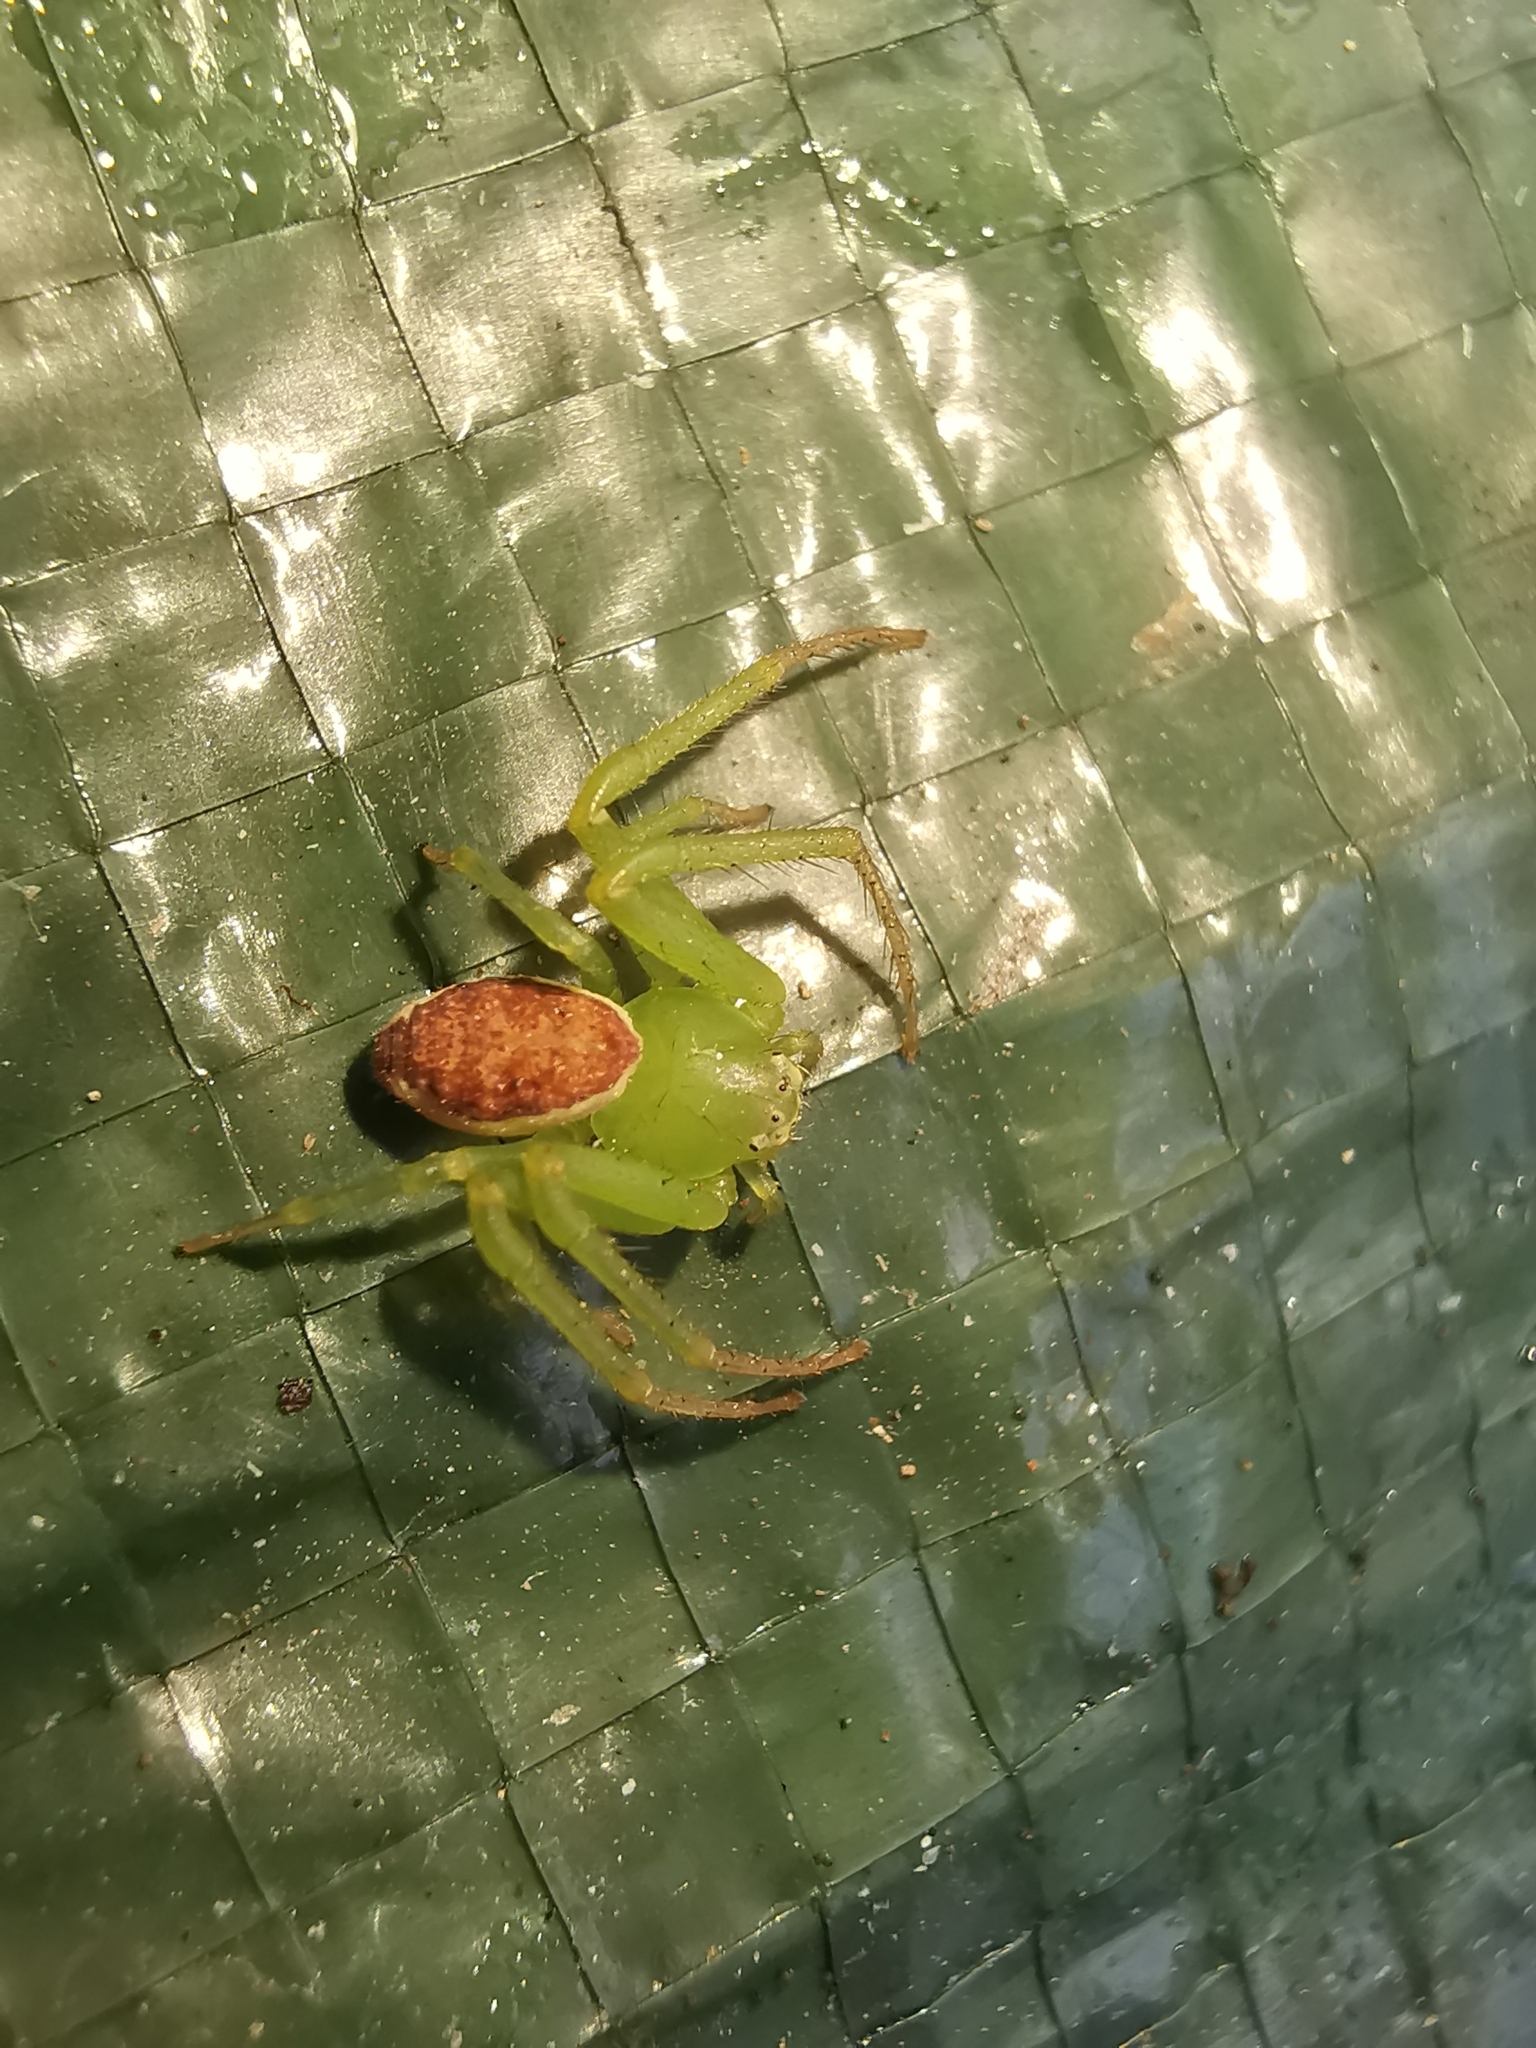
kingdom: Animalia
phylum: Arthropoda
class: Arachnida
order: Araneae
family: Thomisidae
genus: Diaea
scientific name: Diaea dorsata
